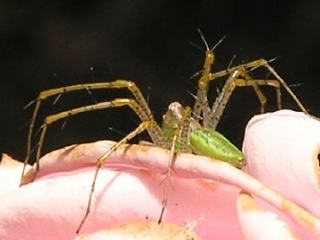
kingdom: Animalia
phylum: Arthropoda
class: Arachnida
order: Araneae
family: Oxyopidae
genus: Peucetia
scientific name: Peucetia viridans
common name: Lynx spiders
